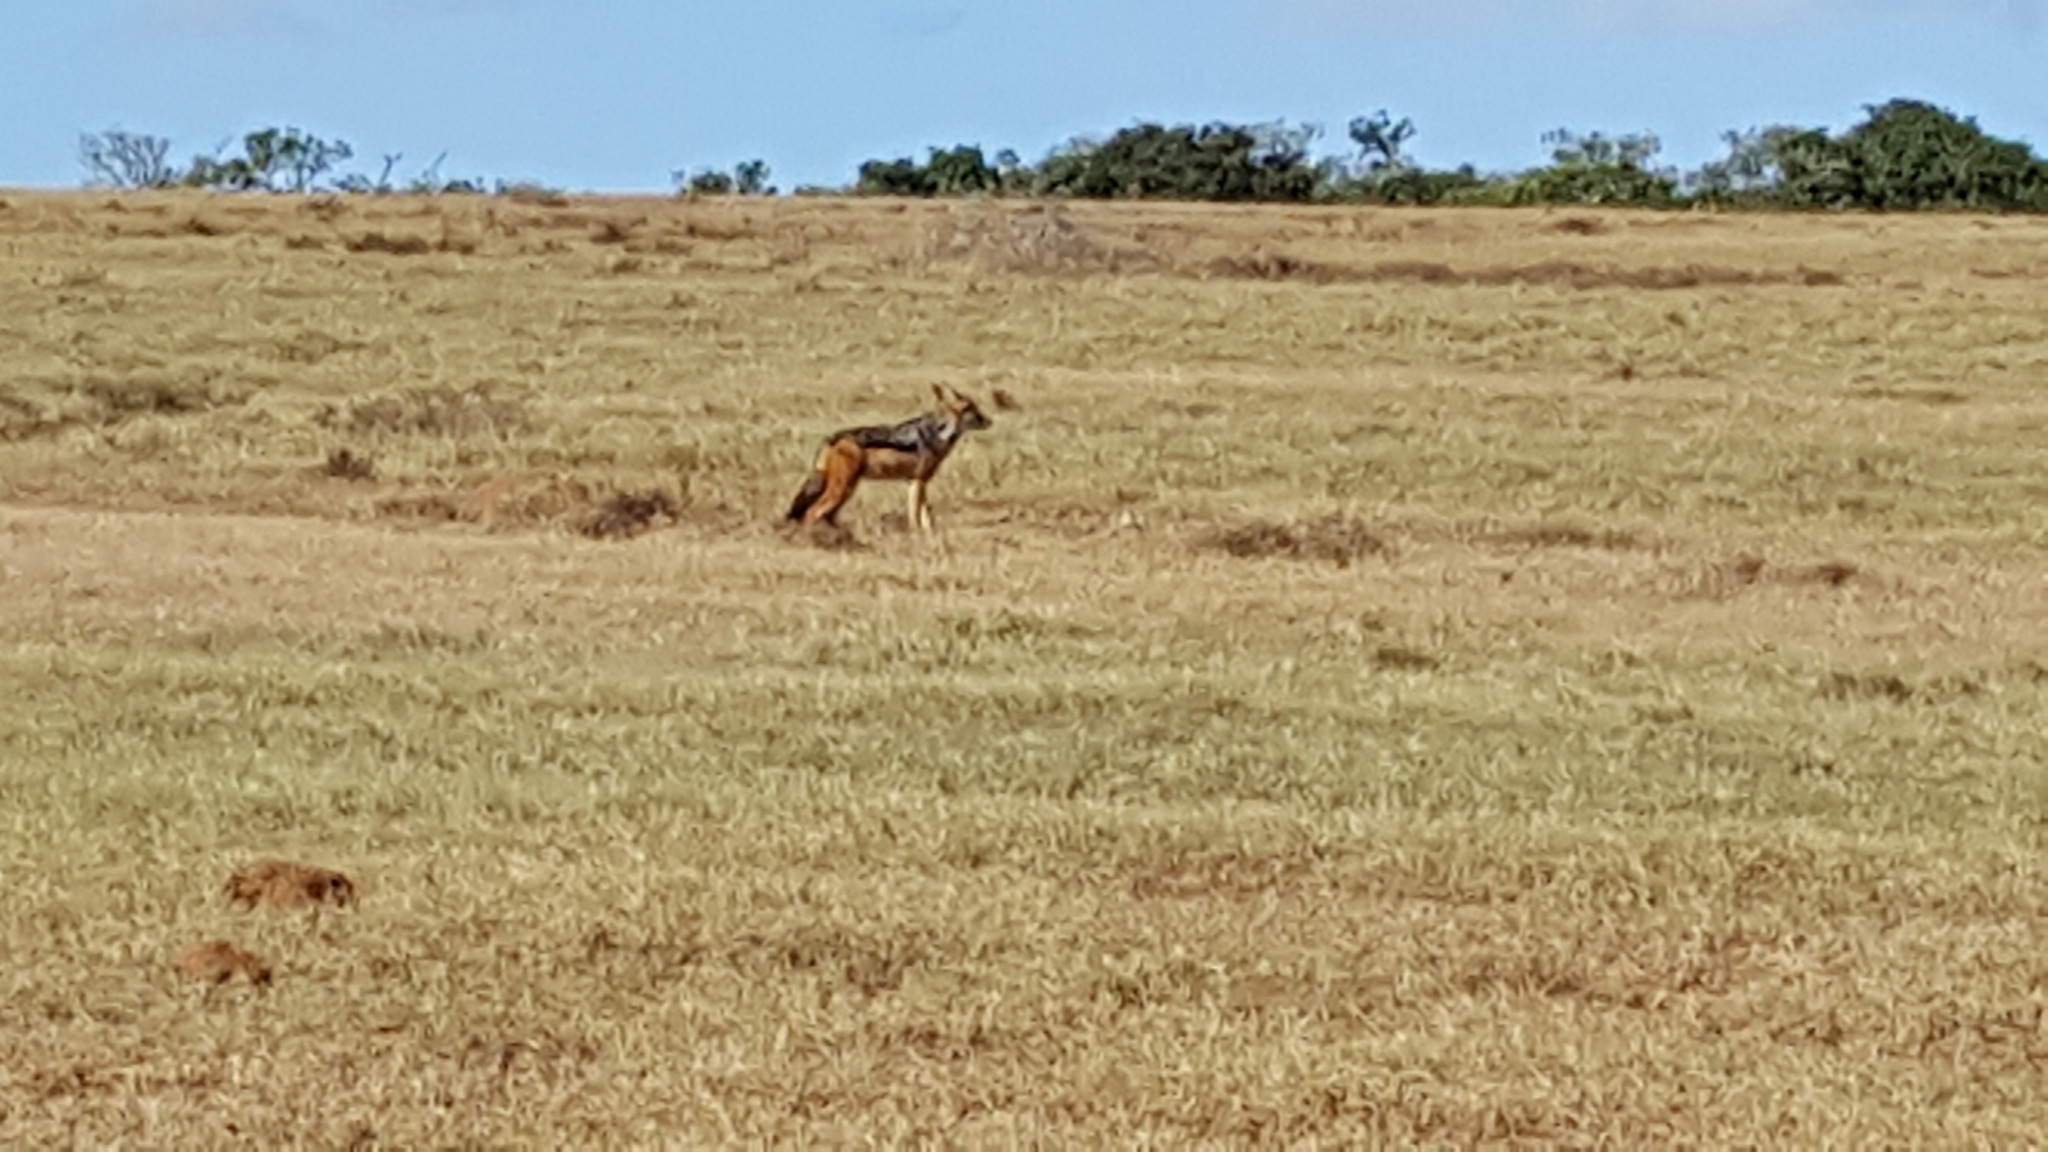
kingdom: Animalia
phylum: Chordata
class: Mammalia
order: Carnivora
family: Canidae
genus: Lupulella
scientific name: Lupulella
